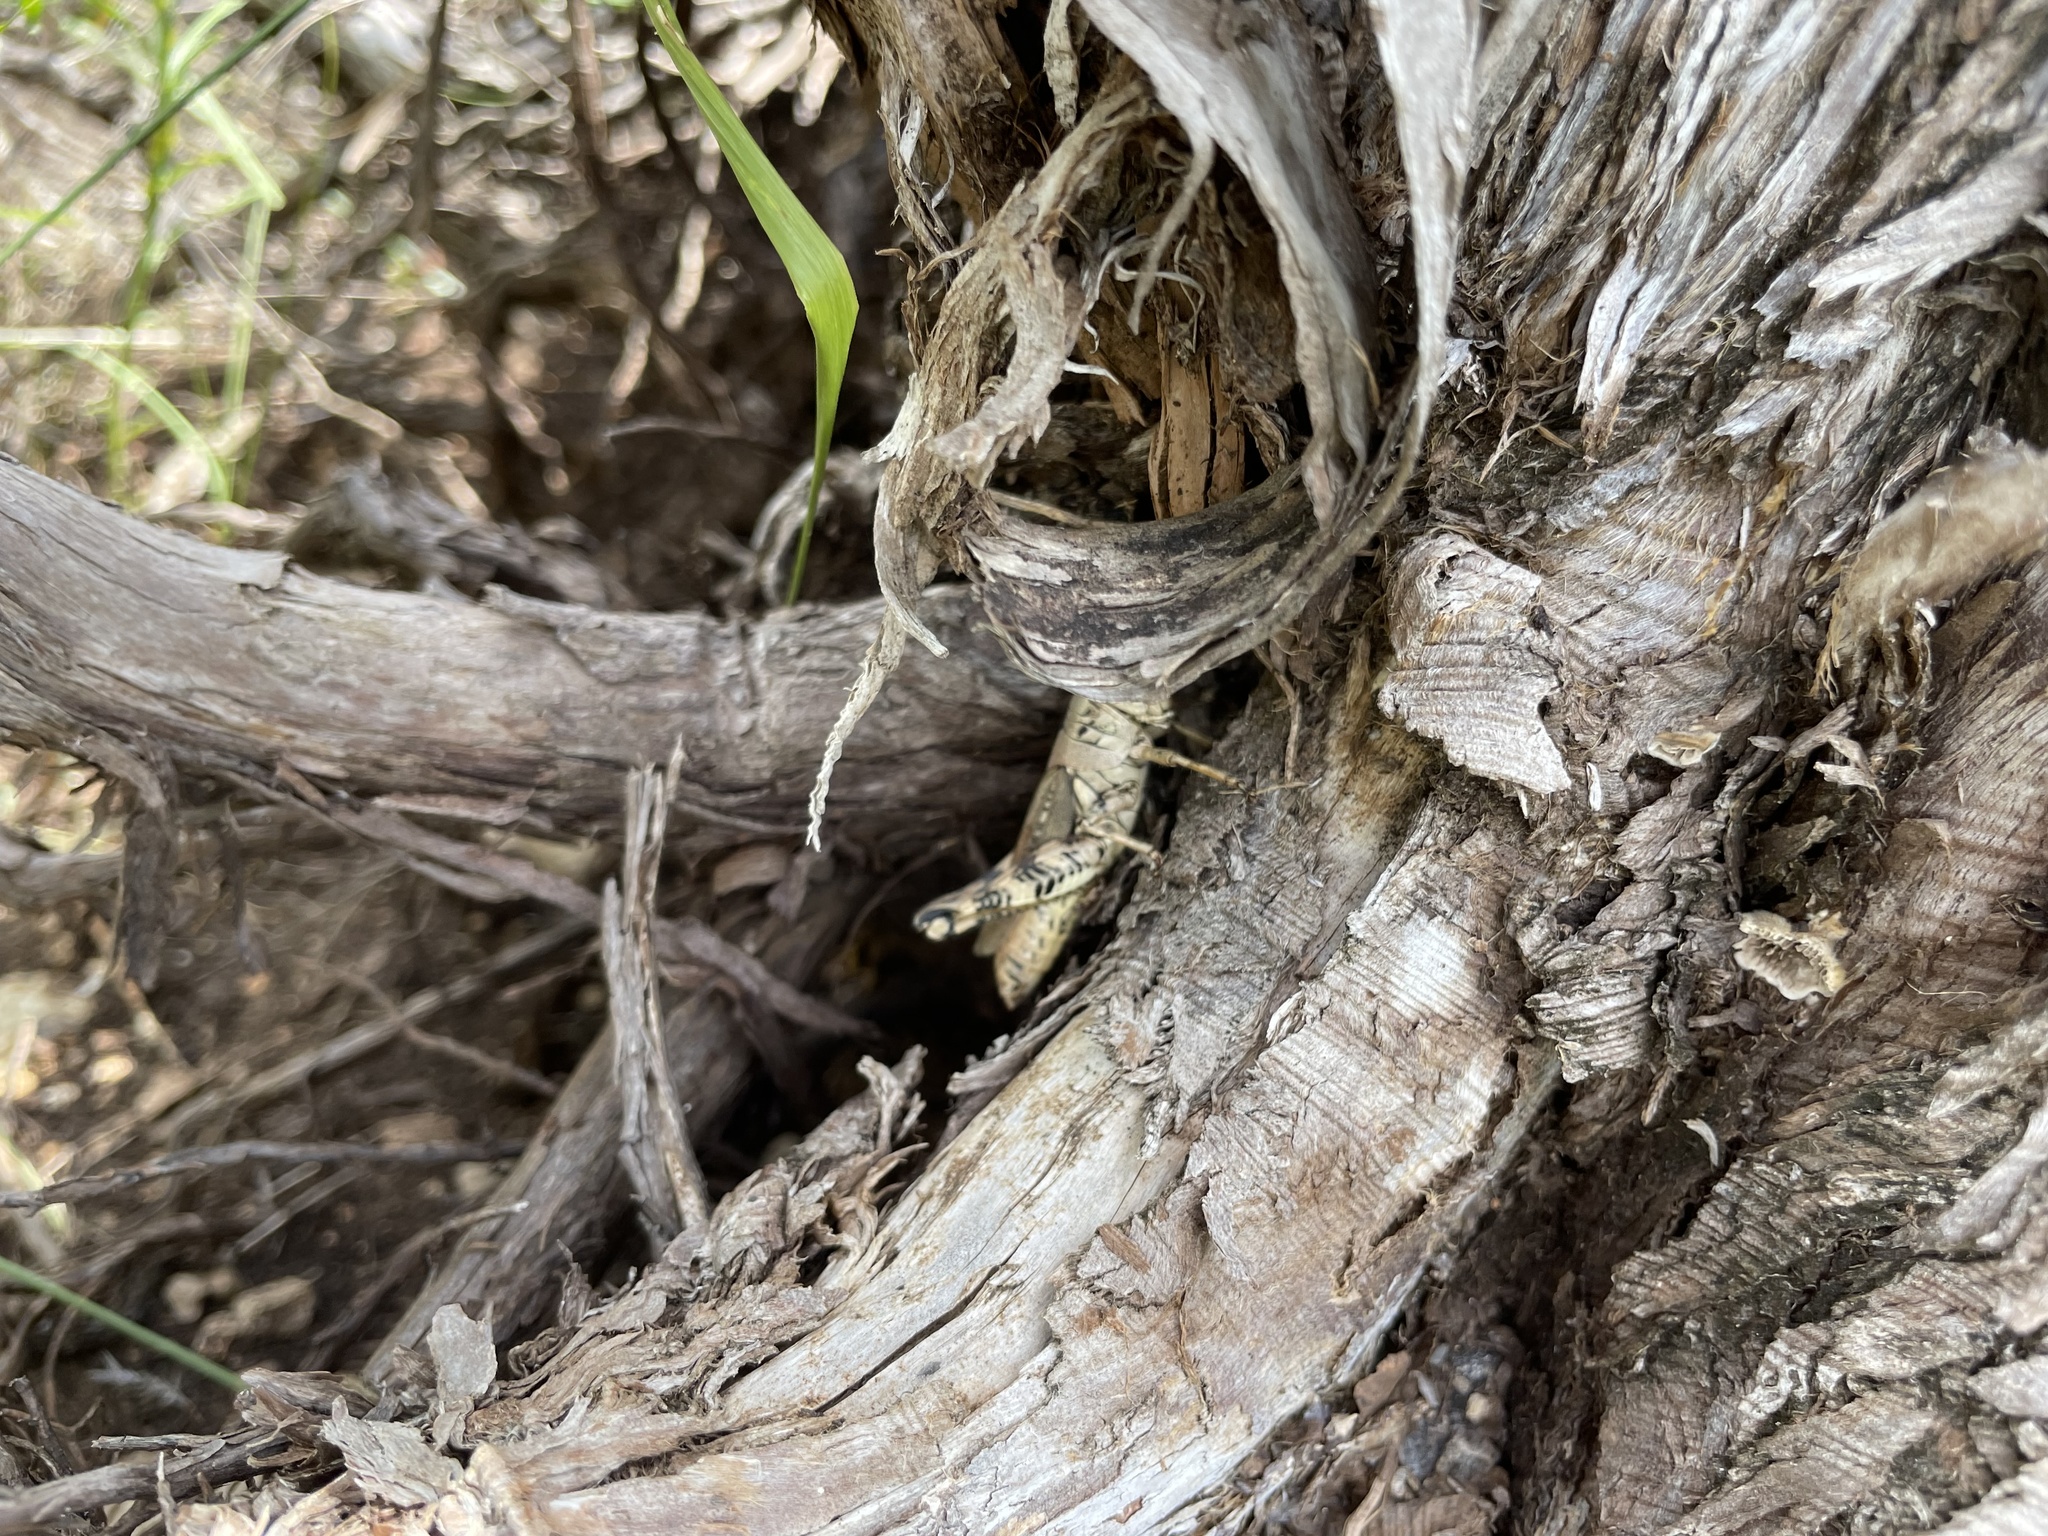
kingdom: Animalia
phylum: Arthropoda
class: Insecta
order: Orthoptera
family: Acrididae
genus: Melanoplus
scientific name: Melanoplus ponderosus
